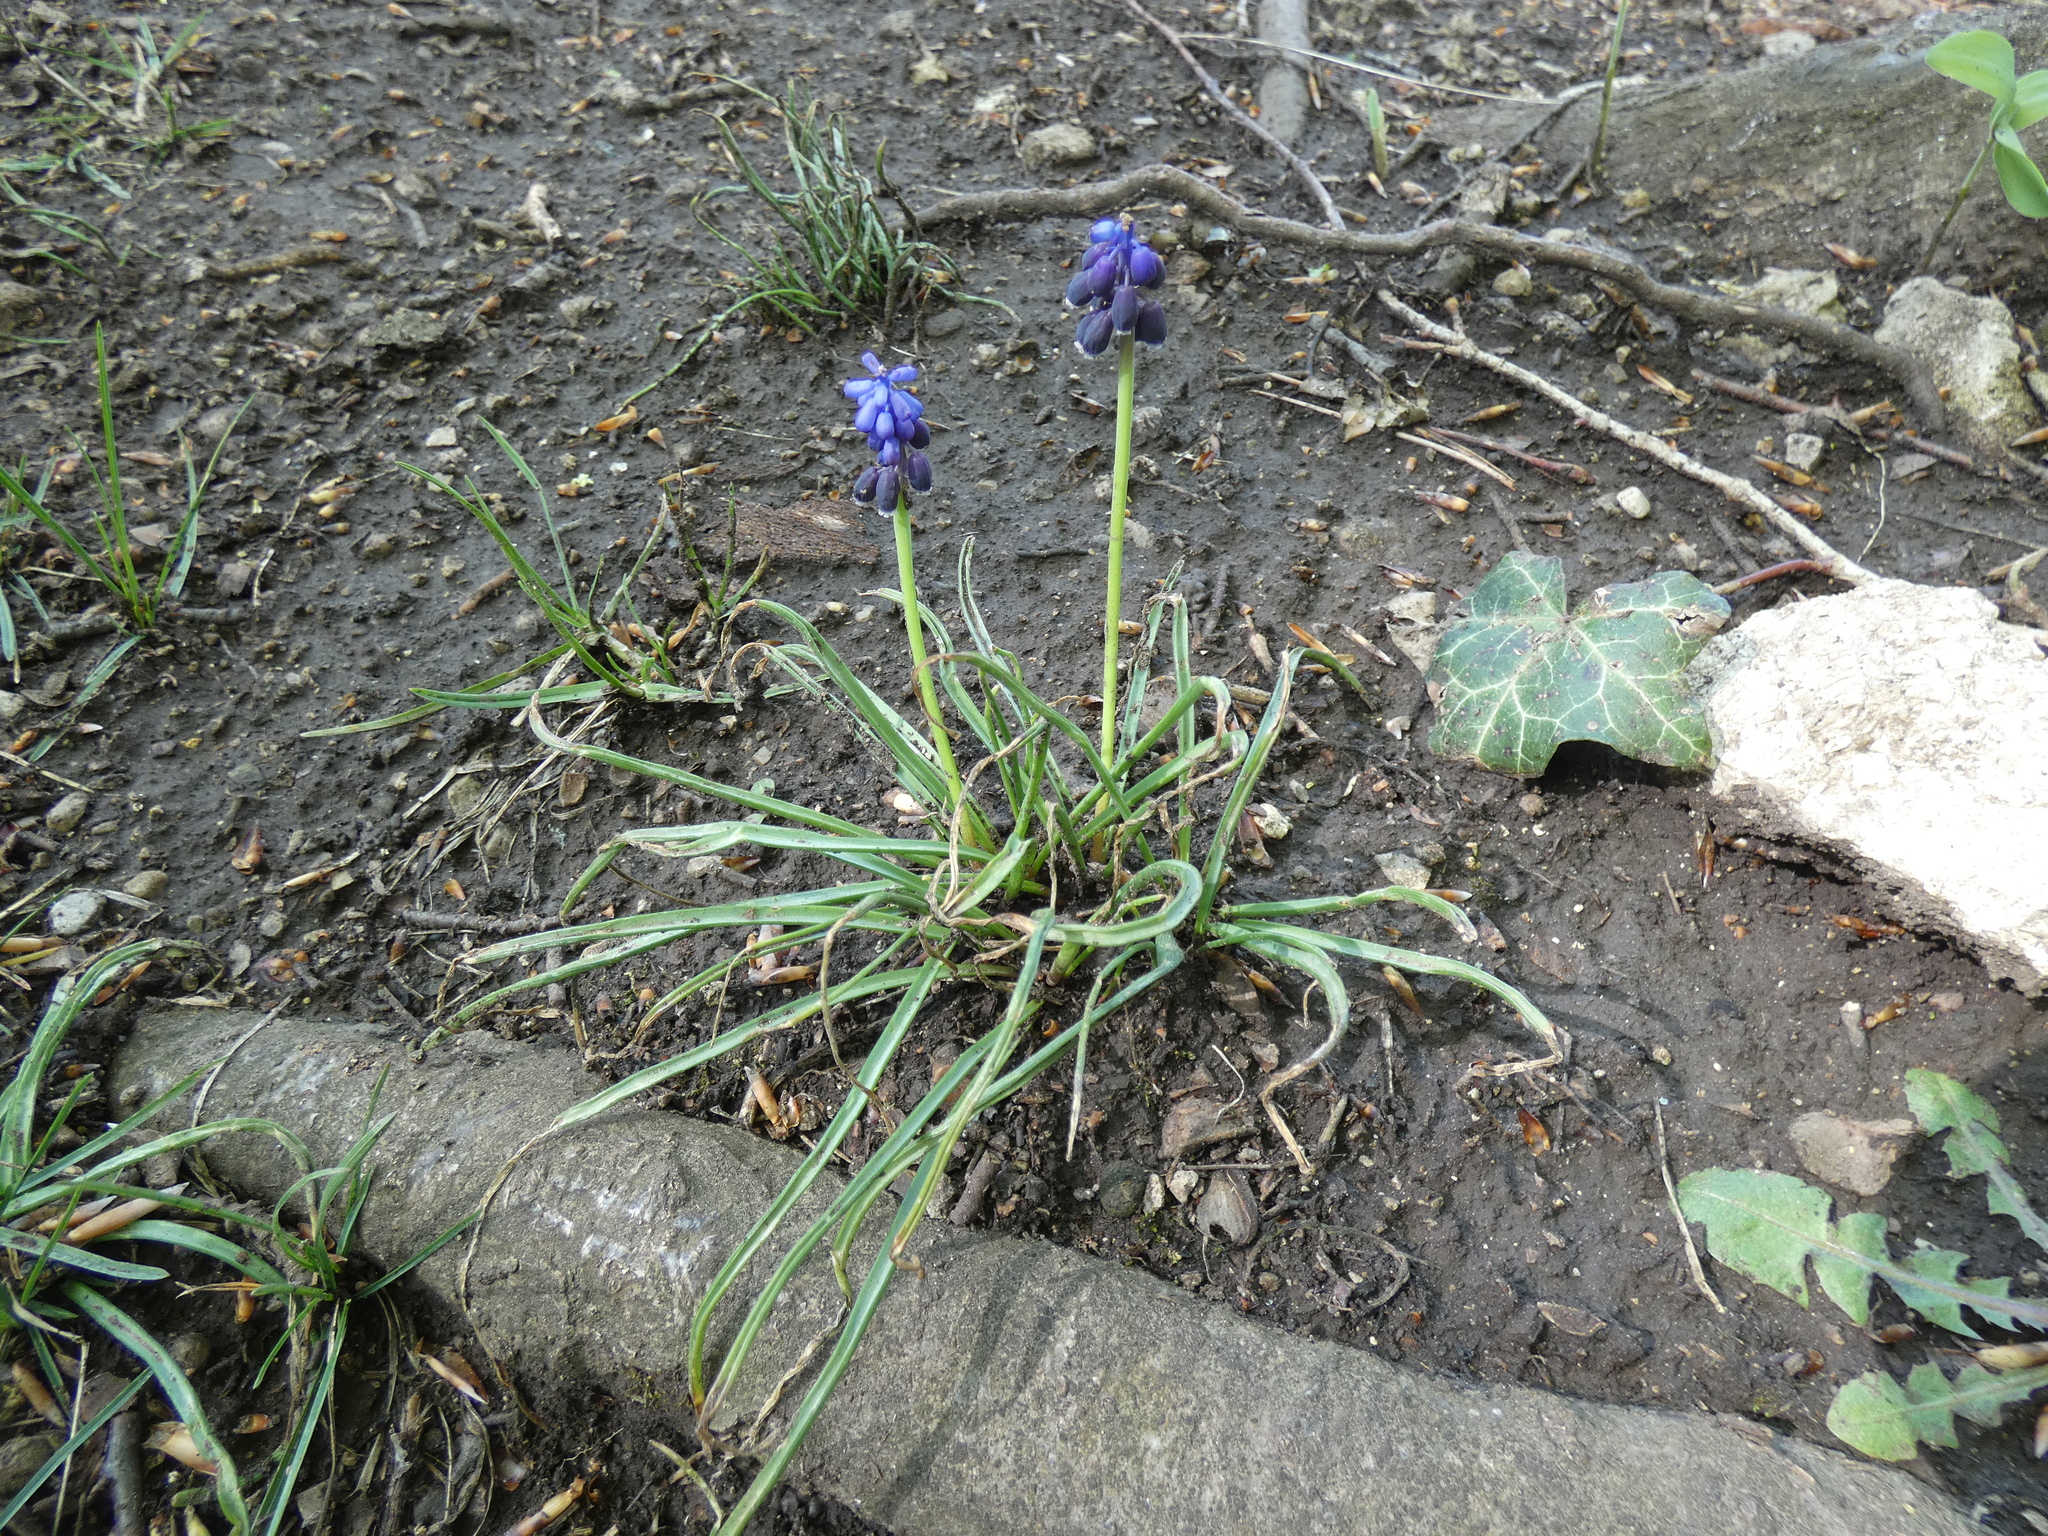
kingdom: Plantae
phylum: Tracheophyta
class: Liliopsida
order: Asparagales
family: Asparagaceae
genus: Muscari
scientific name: Muscari neglectum
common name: Grape-hyacinth
